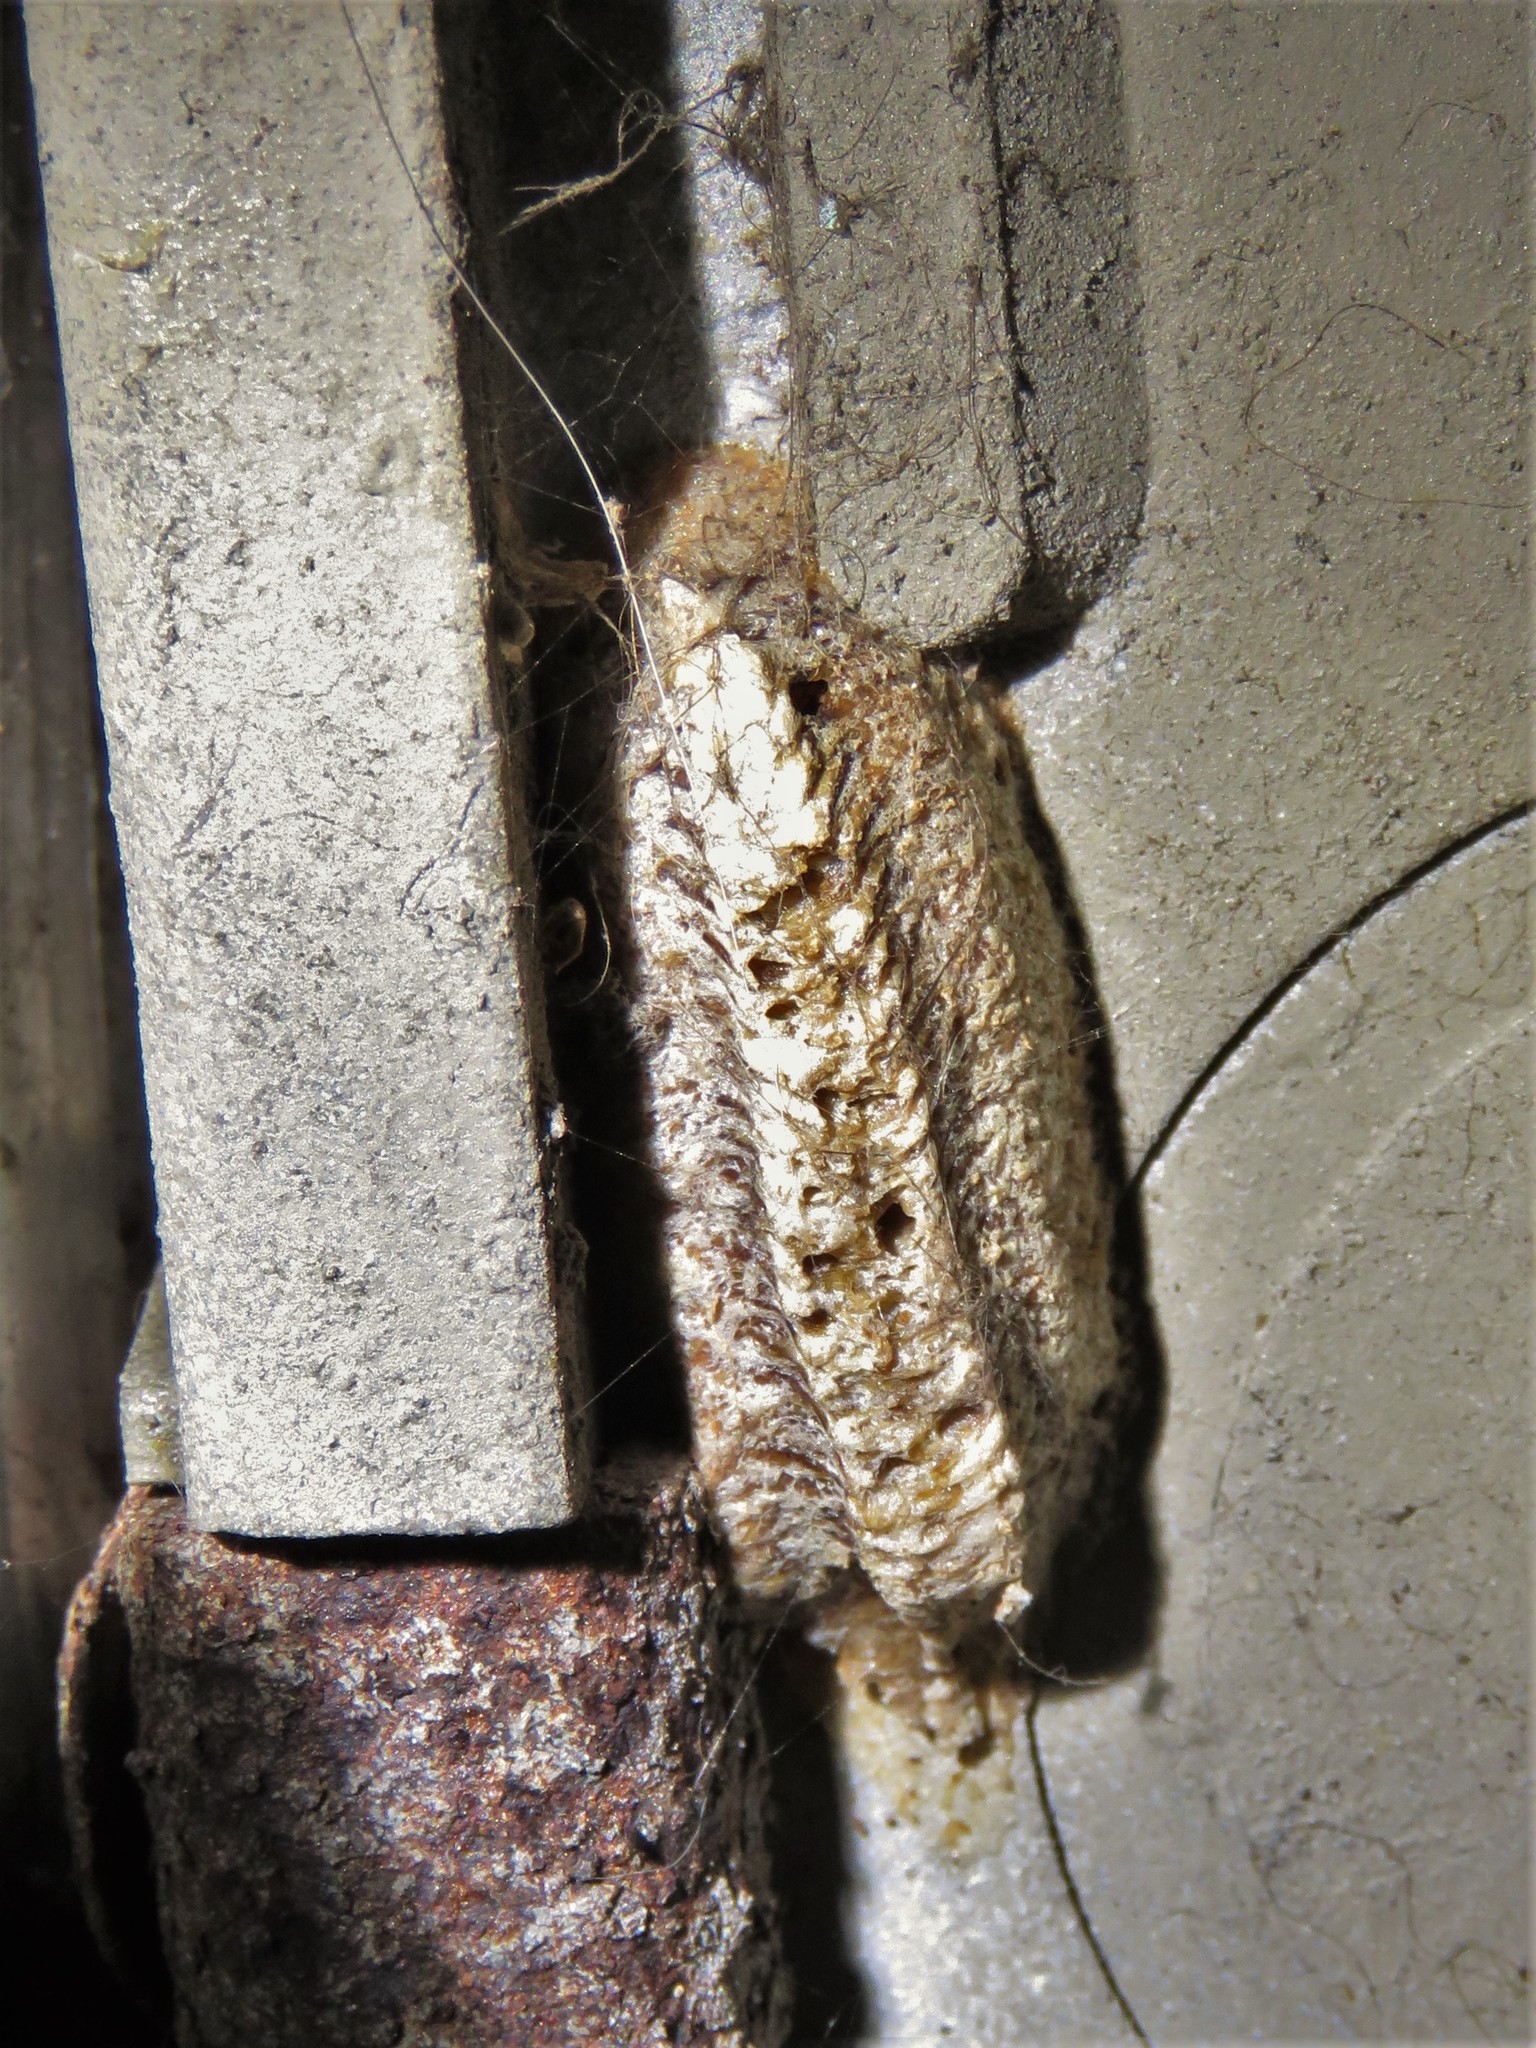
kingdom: Animalia
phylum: Arthropoda
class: Insecta
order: Mantodea
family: Mantidae
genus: Stagmomantis
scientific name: Stagmomantis carolina
